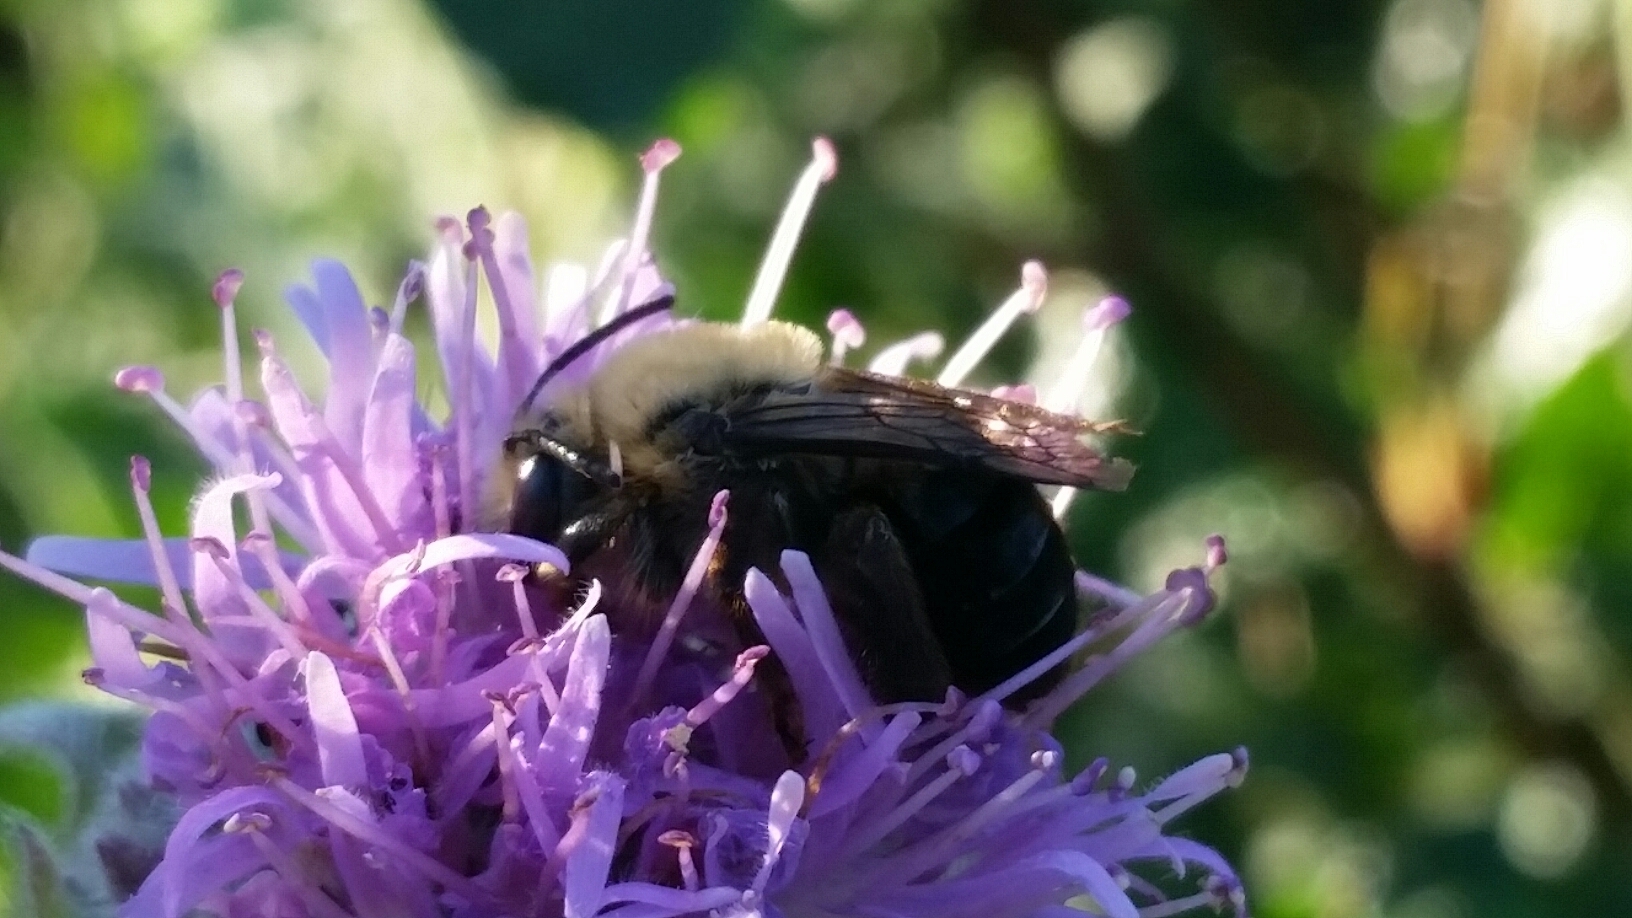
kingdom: Animalia
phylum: Arthropoda
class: Insecta
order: Hymenoptera
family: Apidae
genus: Eucera
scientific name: Eucera frater
